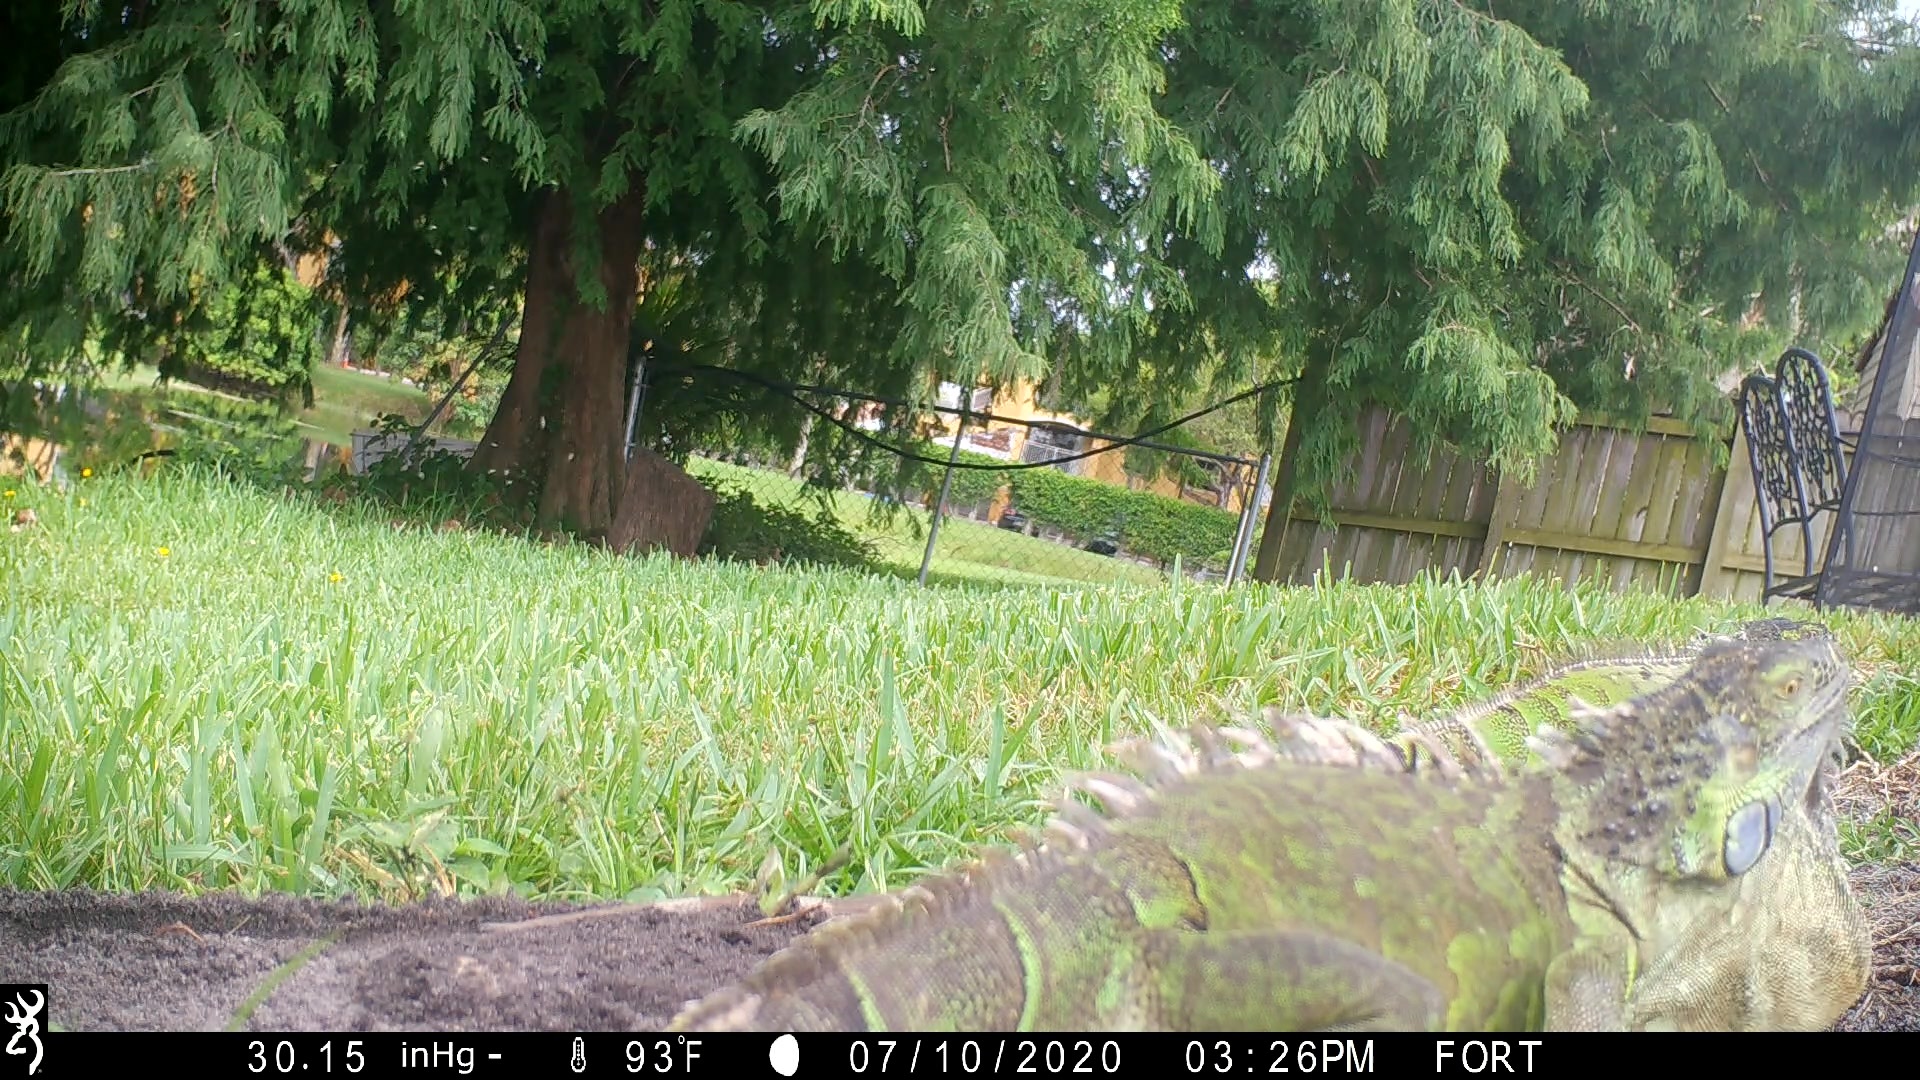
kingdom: Animalia
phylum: Chordata
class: Squamata
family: Iguanidae
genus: Iguana
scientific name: Iguana iguana
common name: Green iguana
